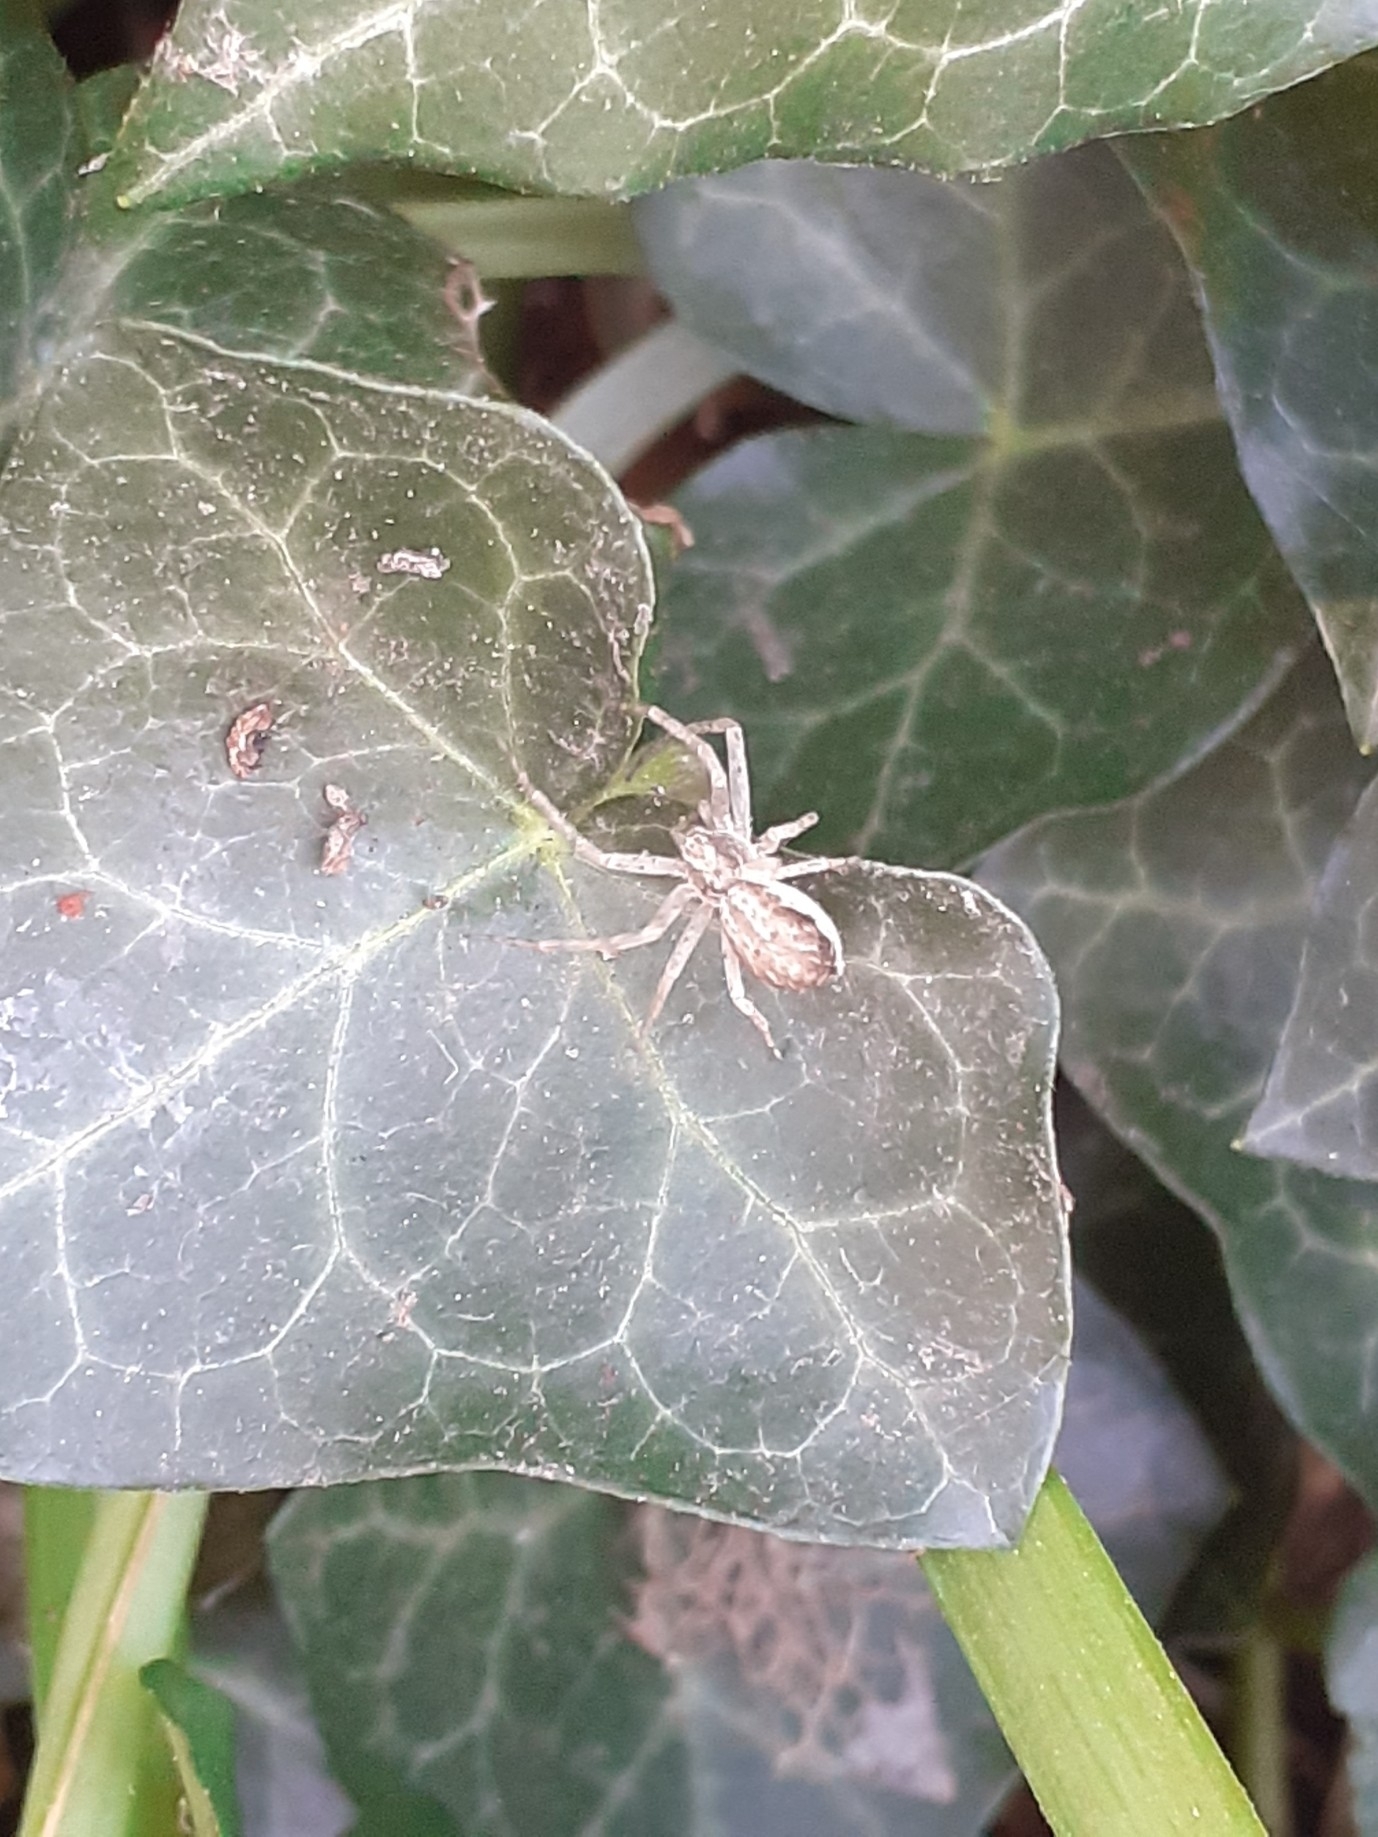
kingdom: Animalia
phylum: Arthropoda
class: Arachnida
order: Araneae
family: Philodromidae
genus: Philodromus
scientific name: Philodromus dispar
